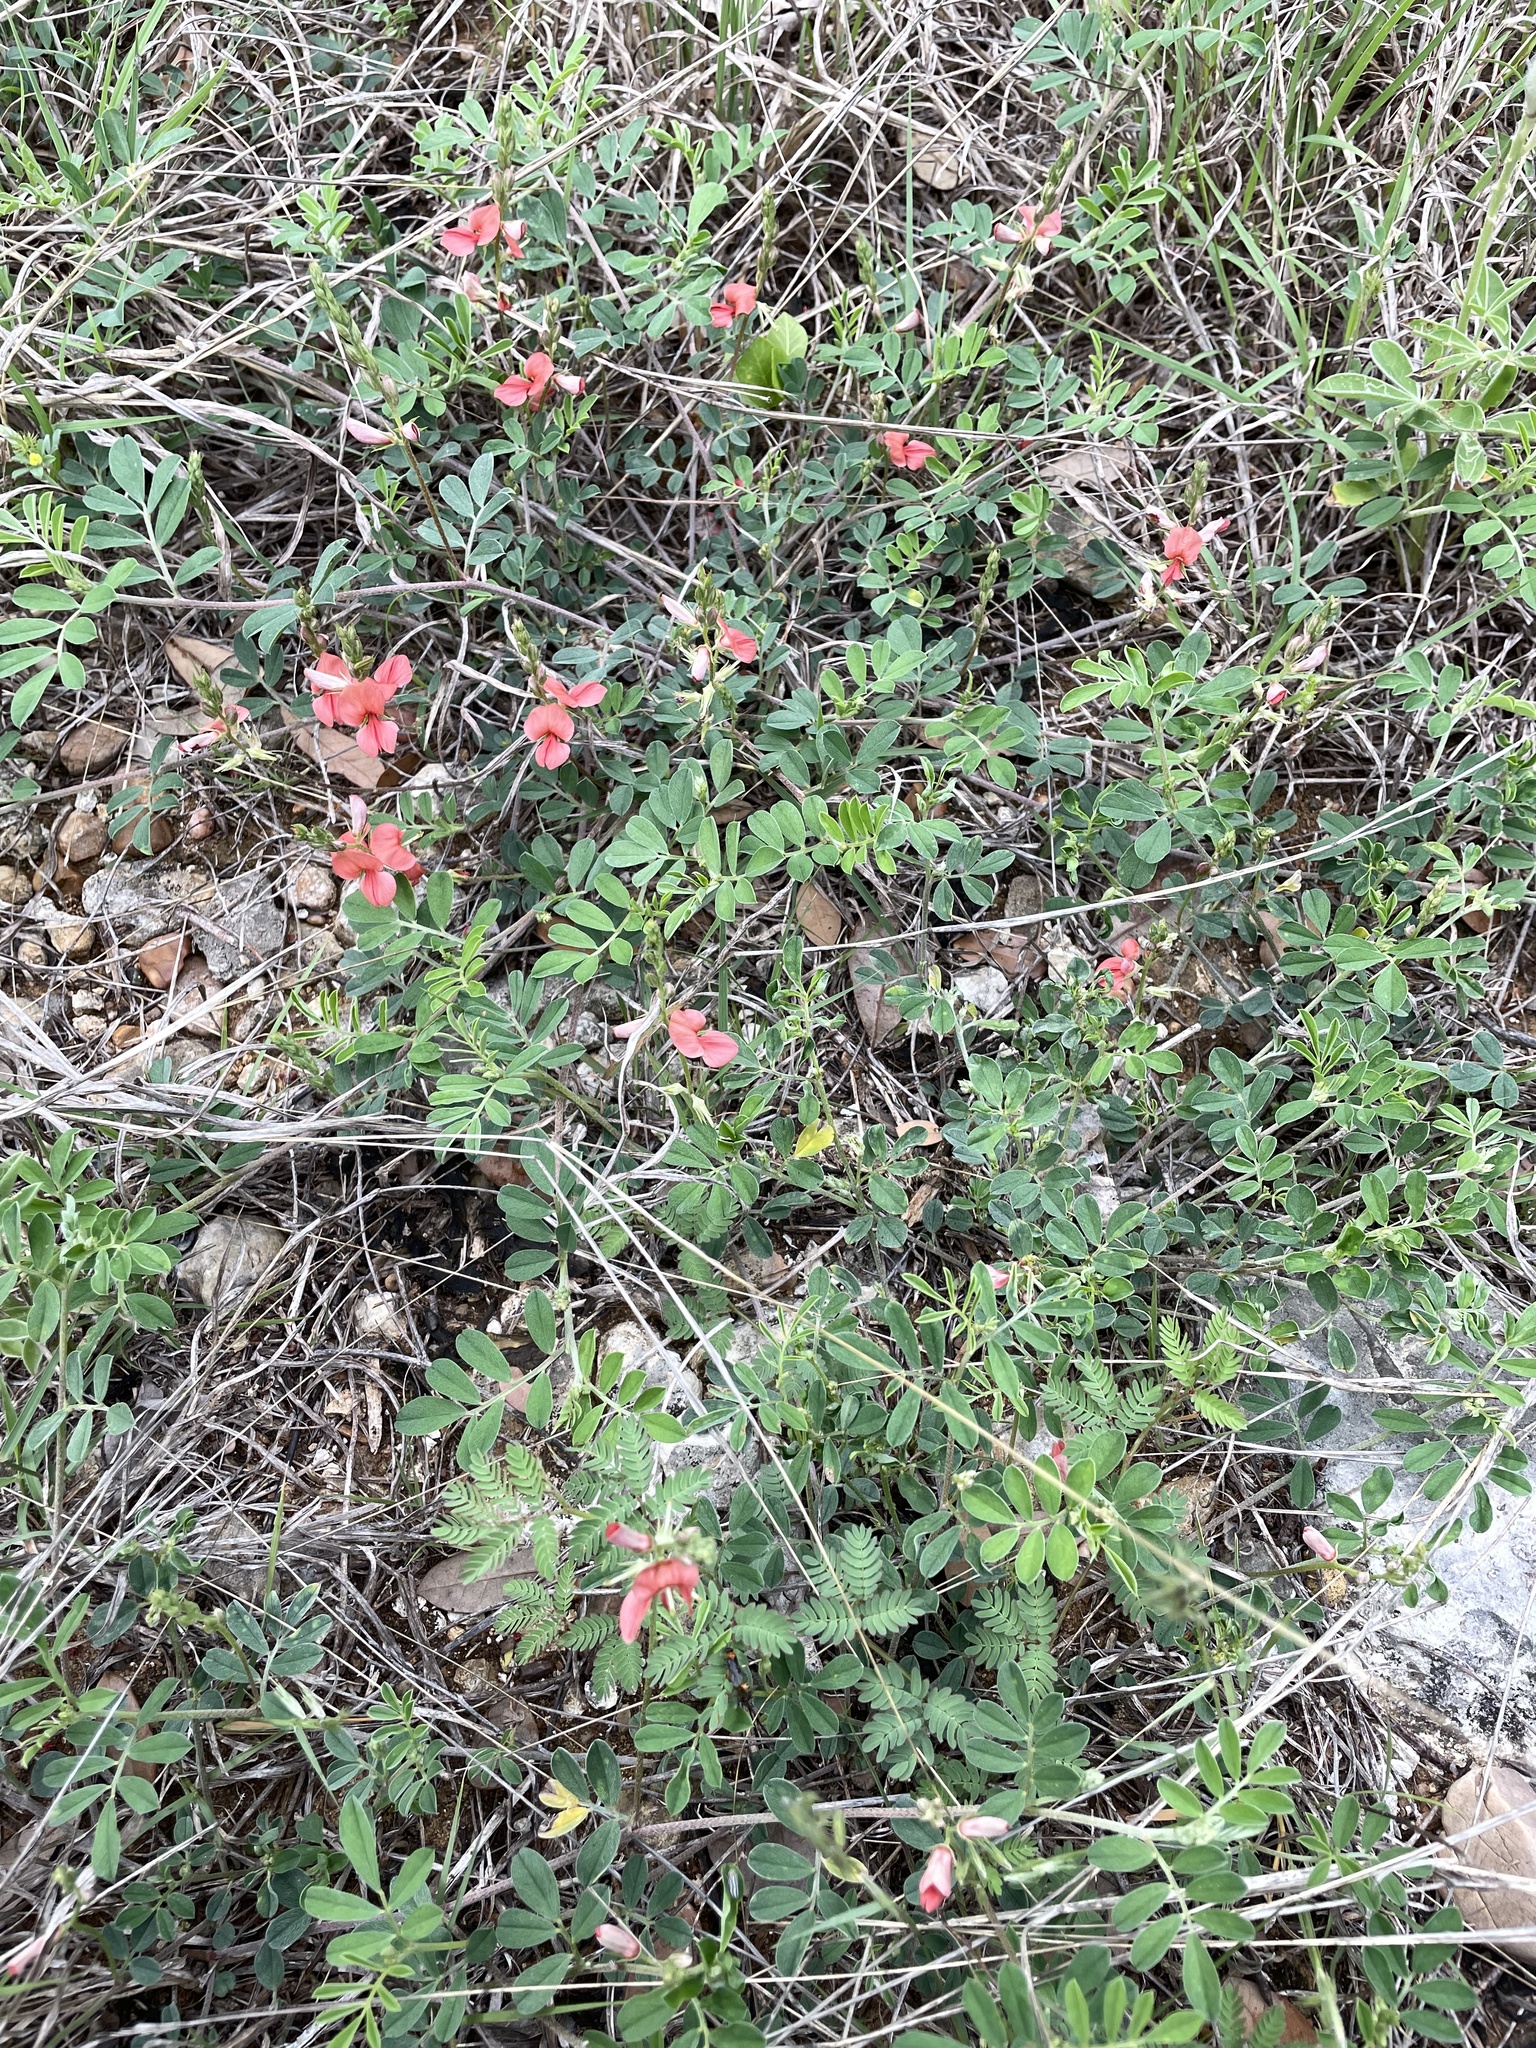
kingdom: Plantae
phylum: Tracheophyta
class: Magnoliopsida
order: Fabales
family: Fabaceae
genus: Indigofera
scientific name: Indigofera miniata
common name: Coast indigo
